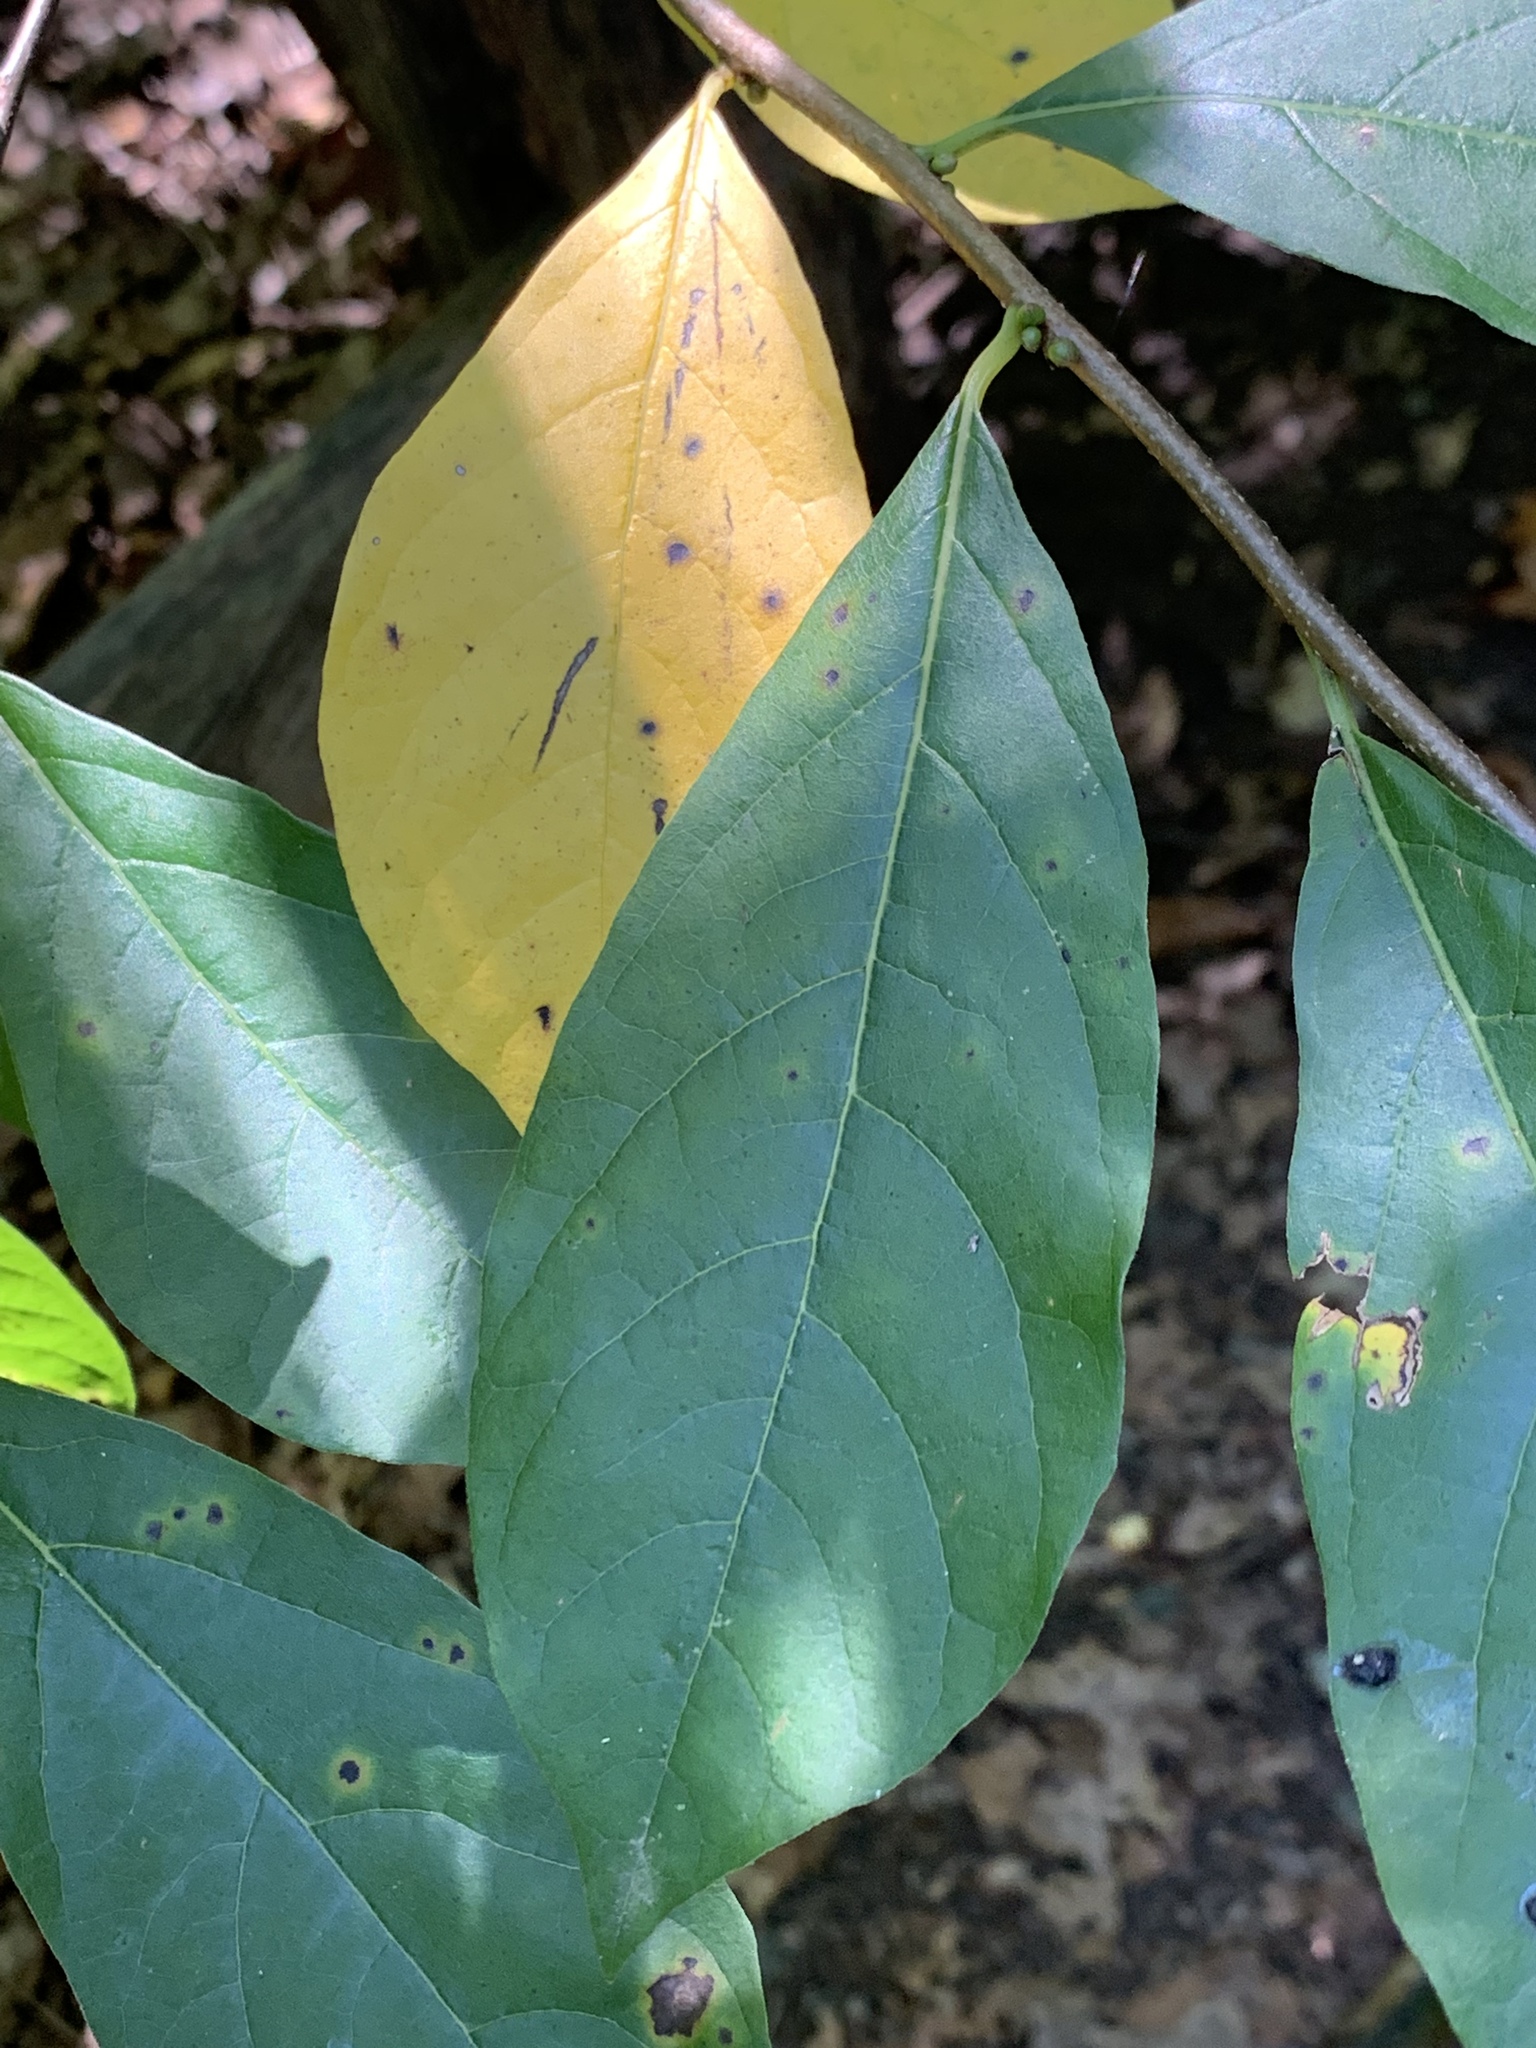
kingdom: Plantae
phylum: Tracheophyta
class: Magnoliopsida
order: Laurales
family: Lauraceae
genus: Lindera
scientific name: Lindera benzoin
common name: Spicebush
